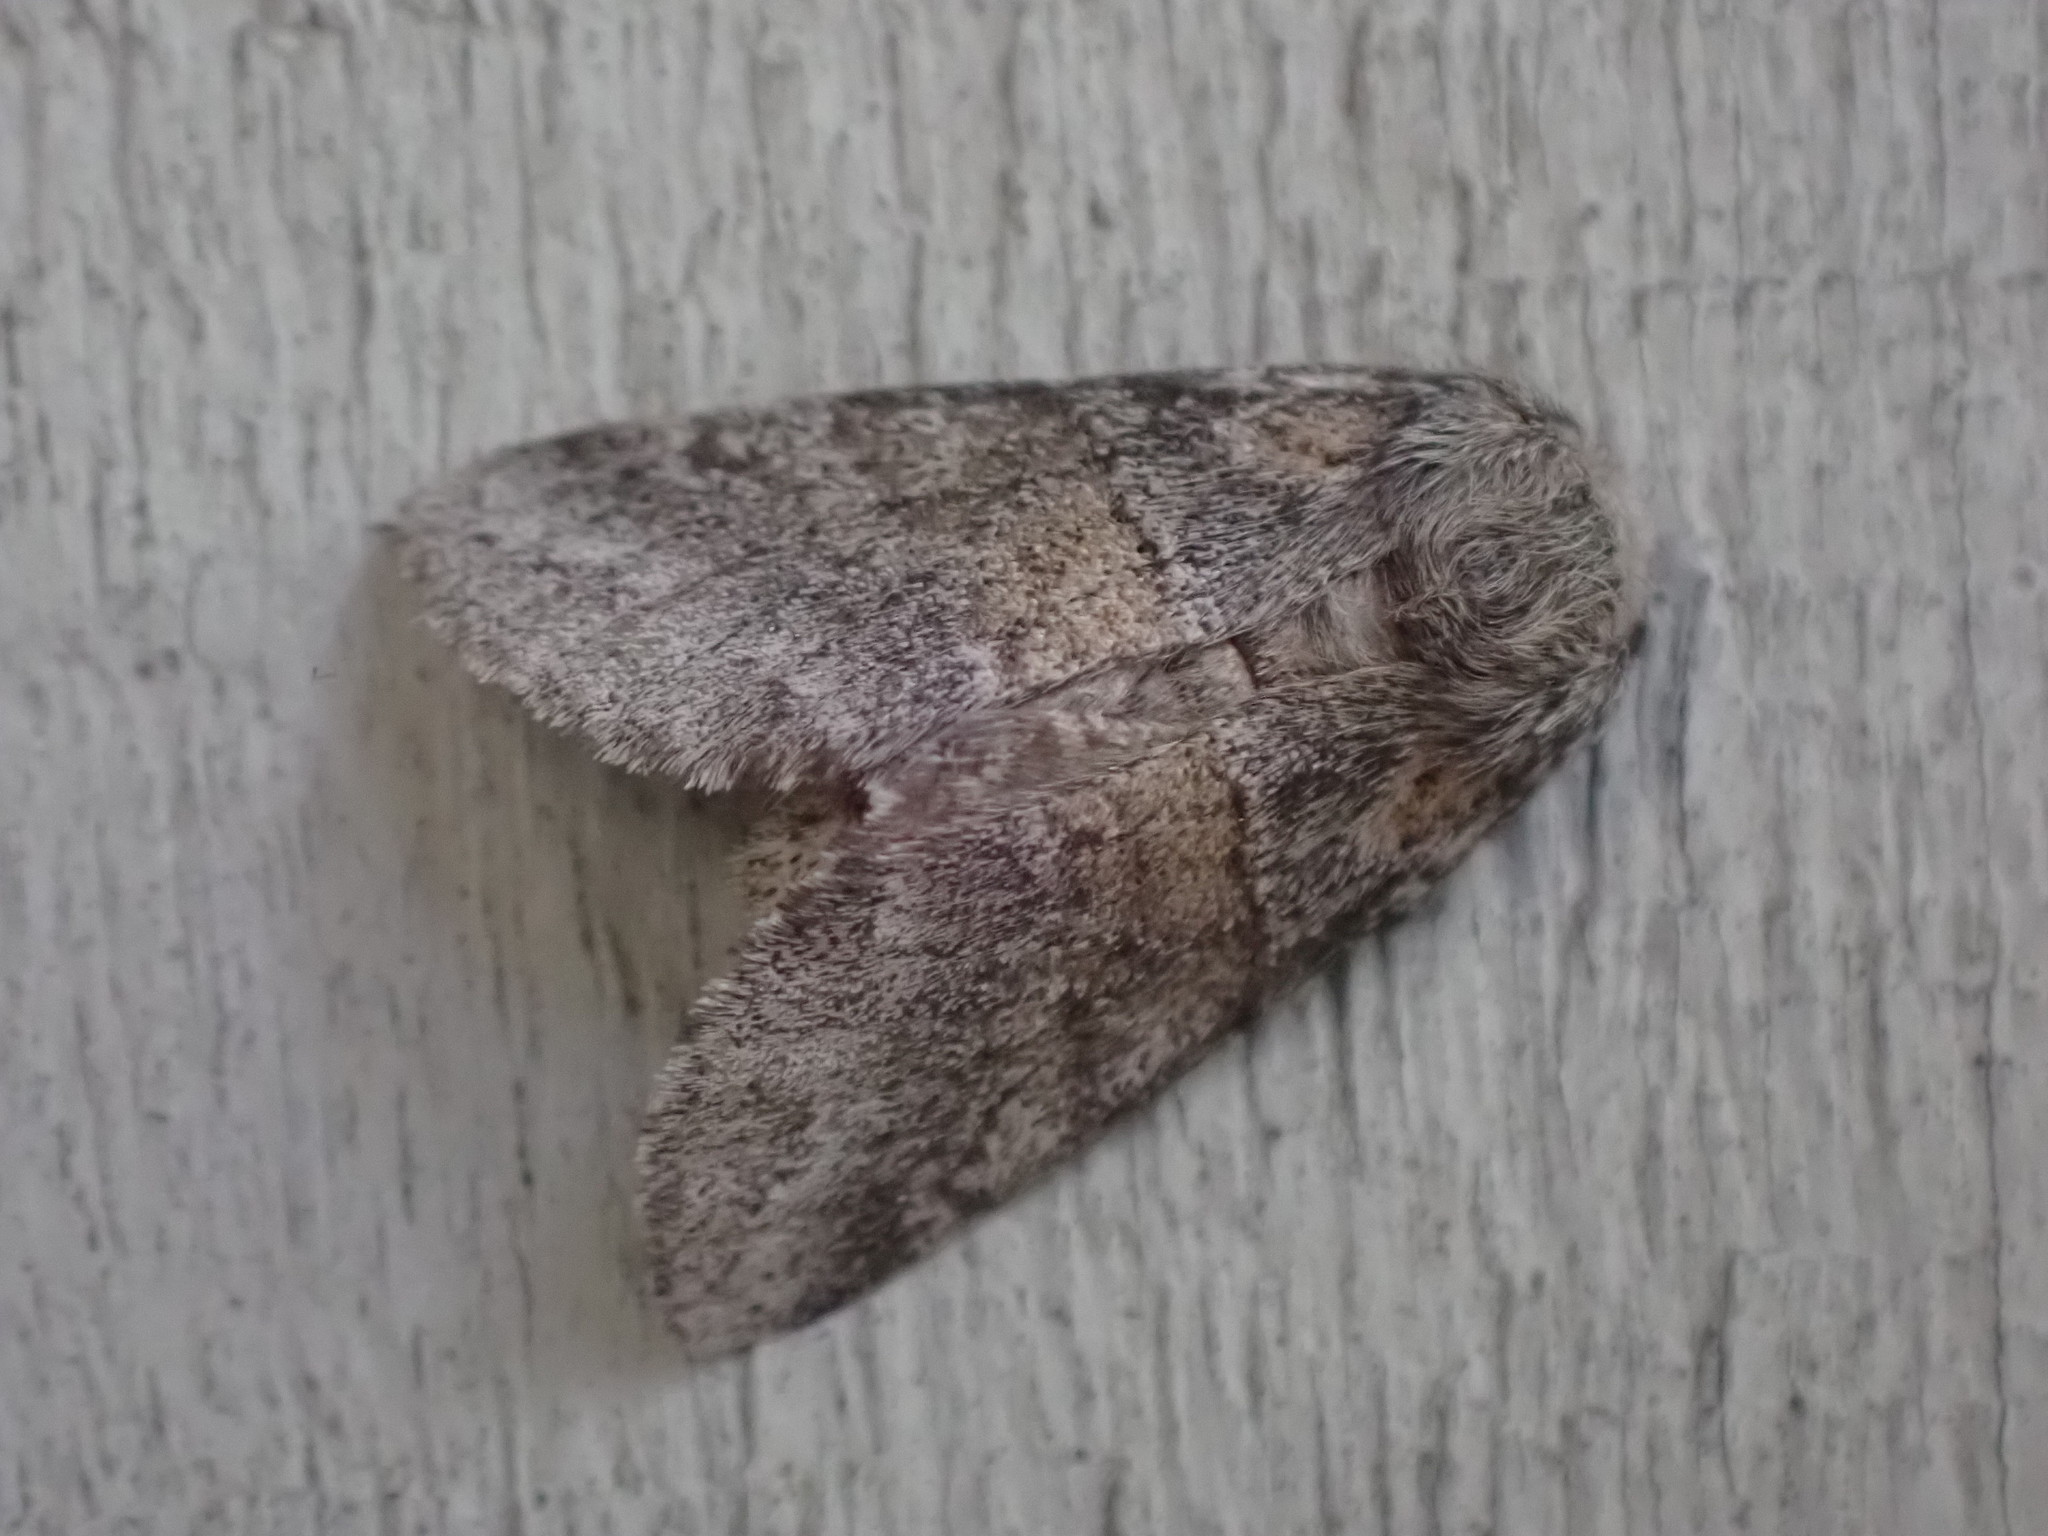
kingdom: Animalia
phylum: Arthropoda
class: Insecta
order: Lepidoptera
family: Notodontidae
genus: Gluphisia
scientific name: Gluphisia septentrionis
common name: Common gluphisia
